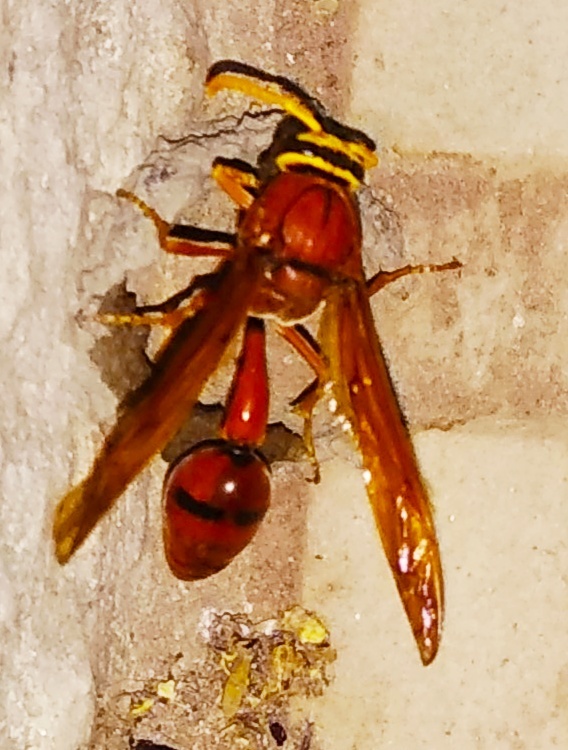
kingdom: Animalia
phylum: Arthropoda
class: Insecta
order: Hymenoptera
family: Eumenidae
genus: Delta
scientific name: Delta conoideum
